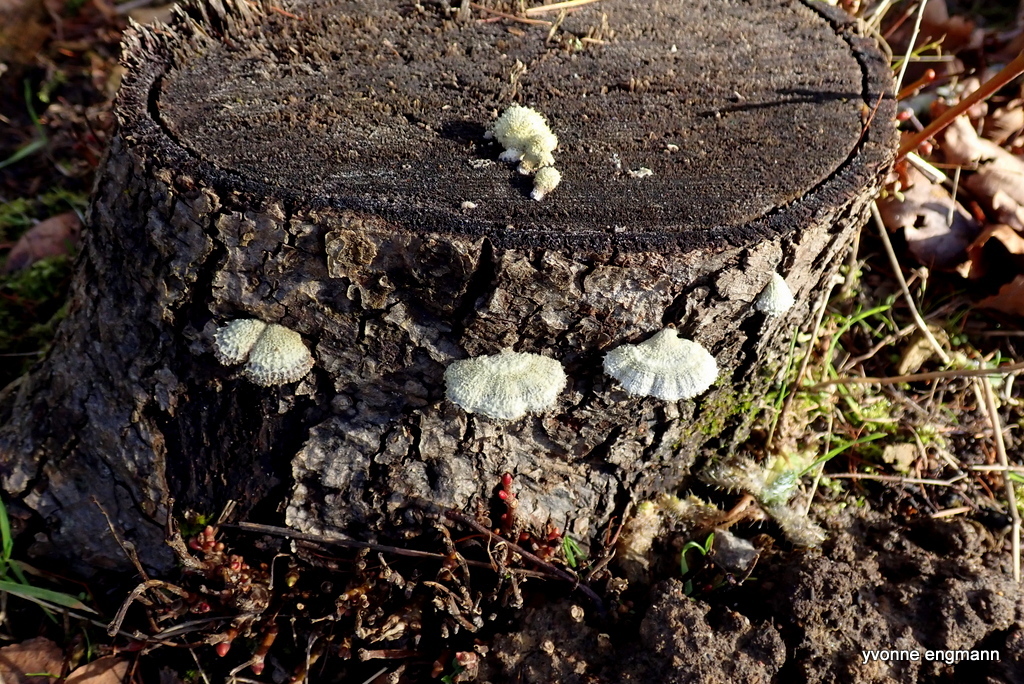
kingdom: Fungi
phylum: Basidiomycota
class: Agaricomycetes
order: Agaricales
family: Schizophyllaceae
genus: Schizophyllum
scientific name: Schizophyllum commune
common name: Common porecrust
